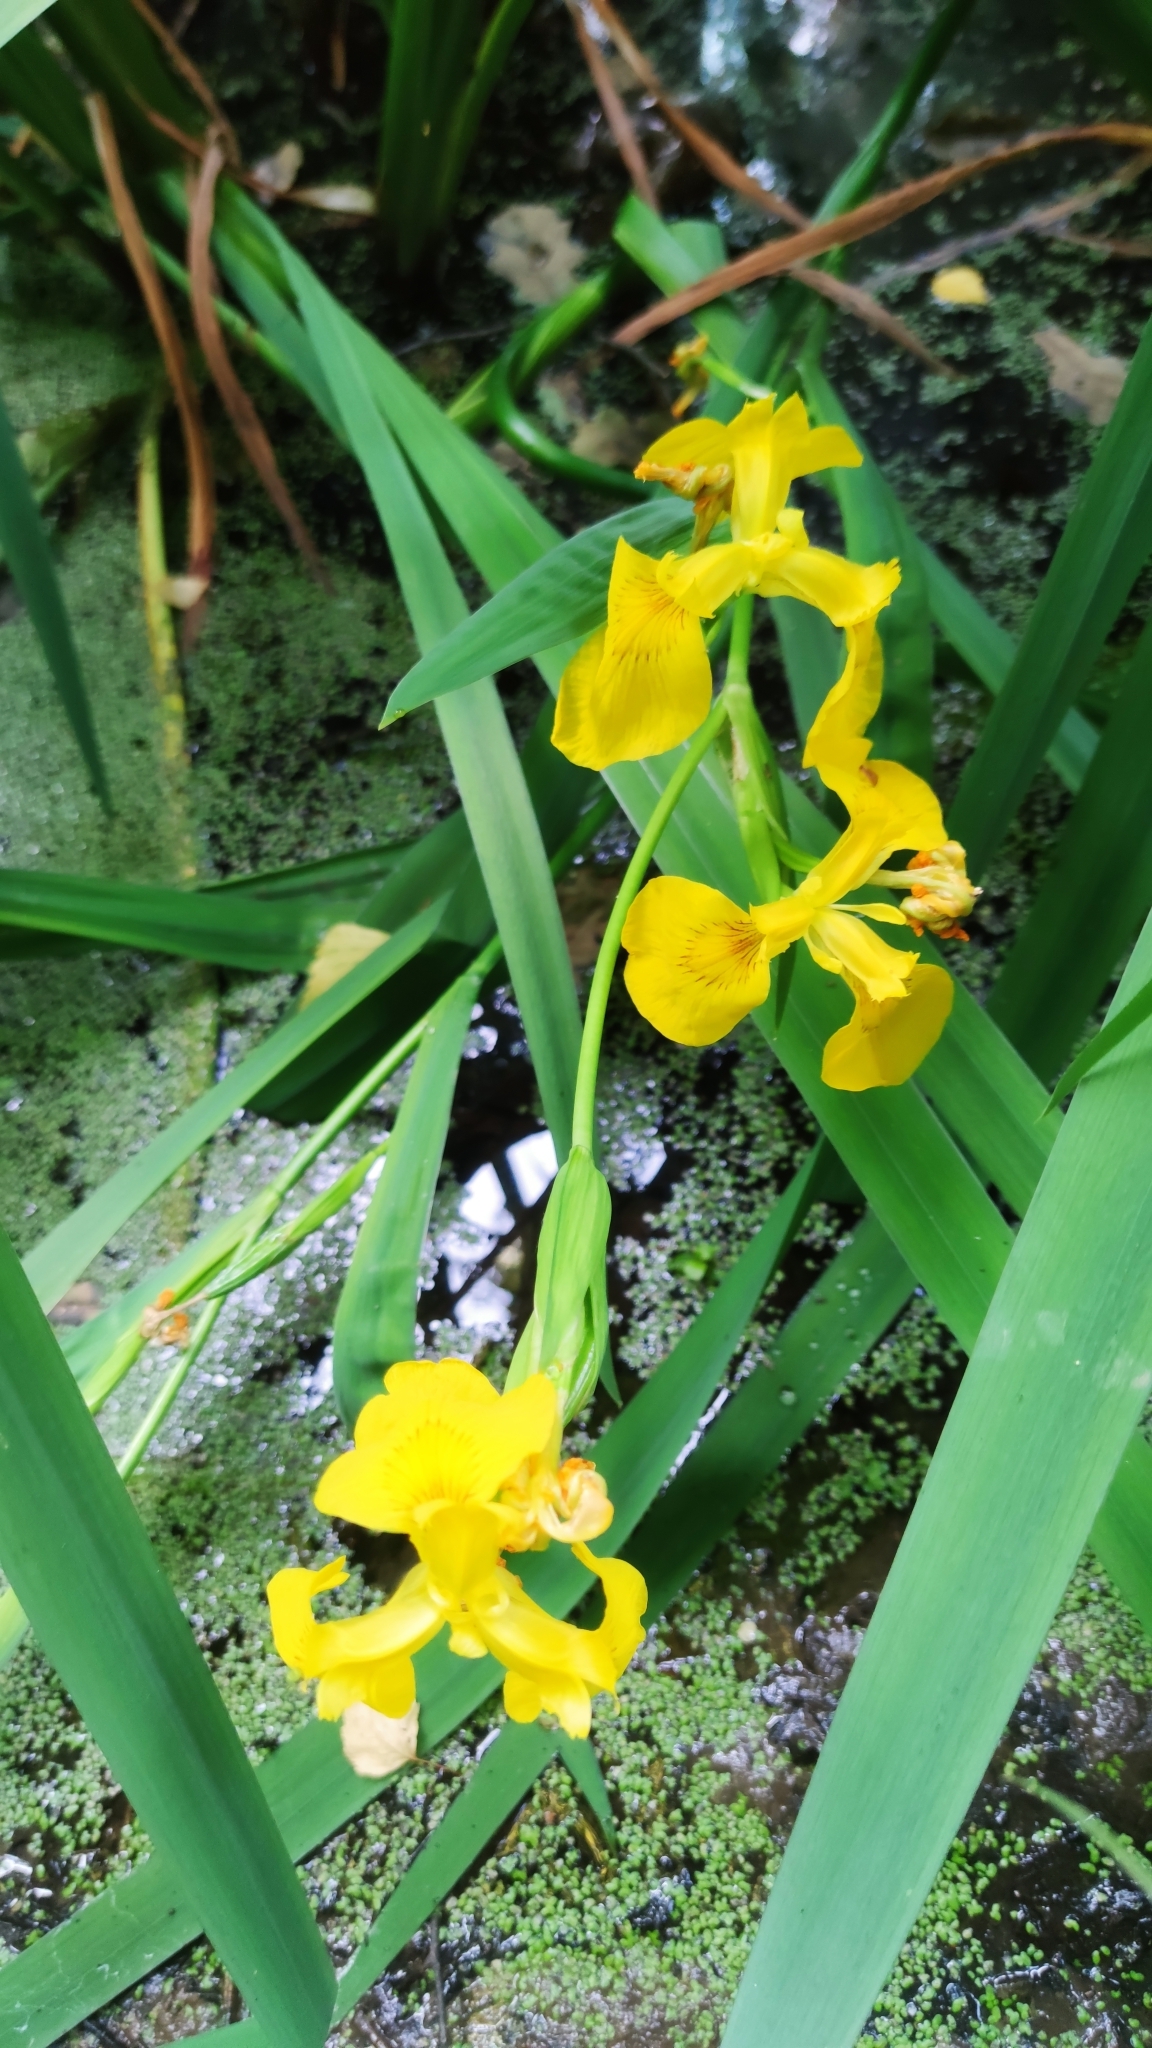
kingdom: Plantae
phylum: Tracheophyta
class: Liliopsida
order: Asparagales
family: Iridaceae
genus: Iris
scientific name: Iris pseudacorus
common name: Yellow flag
